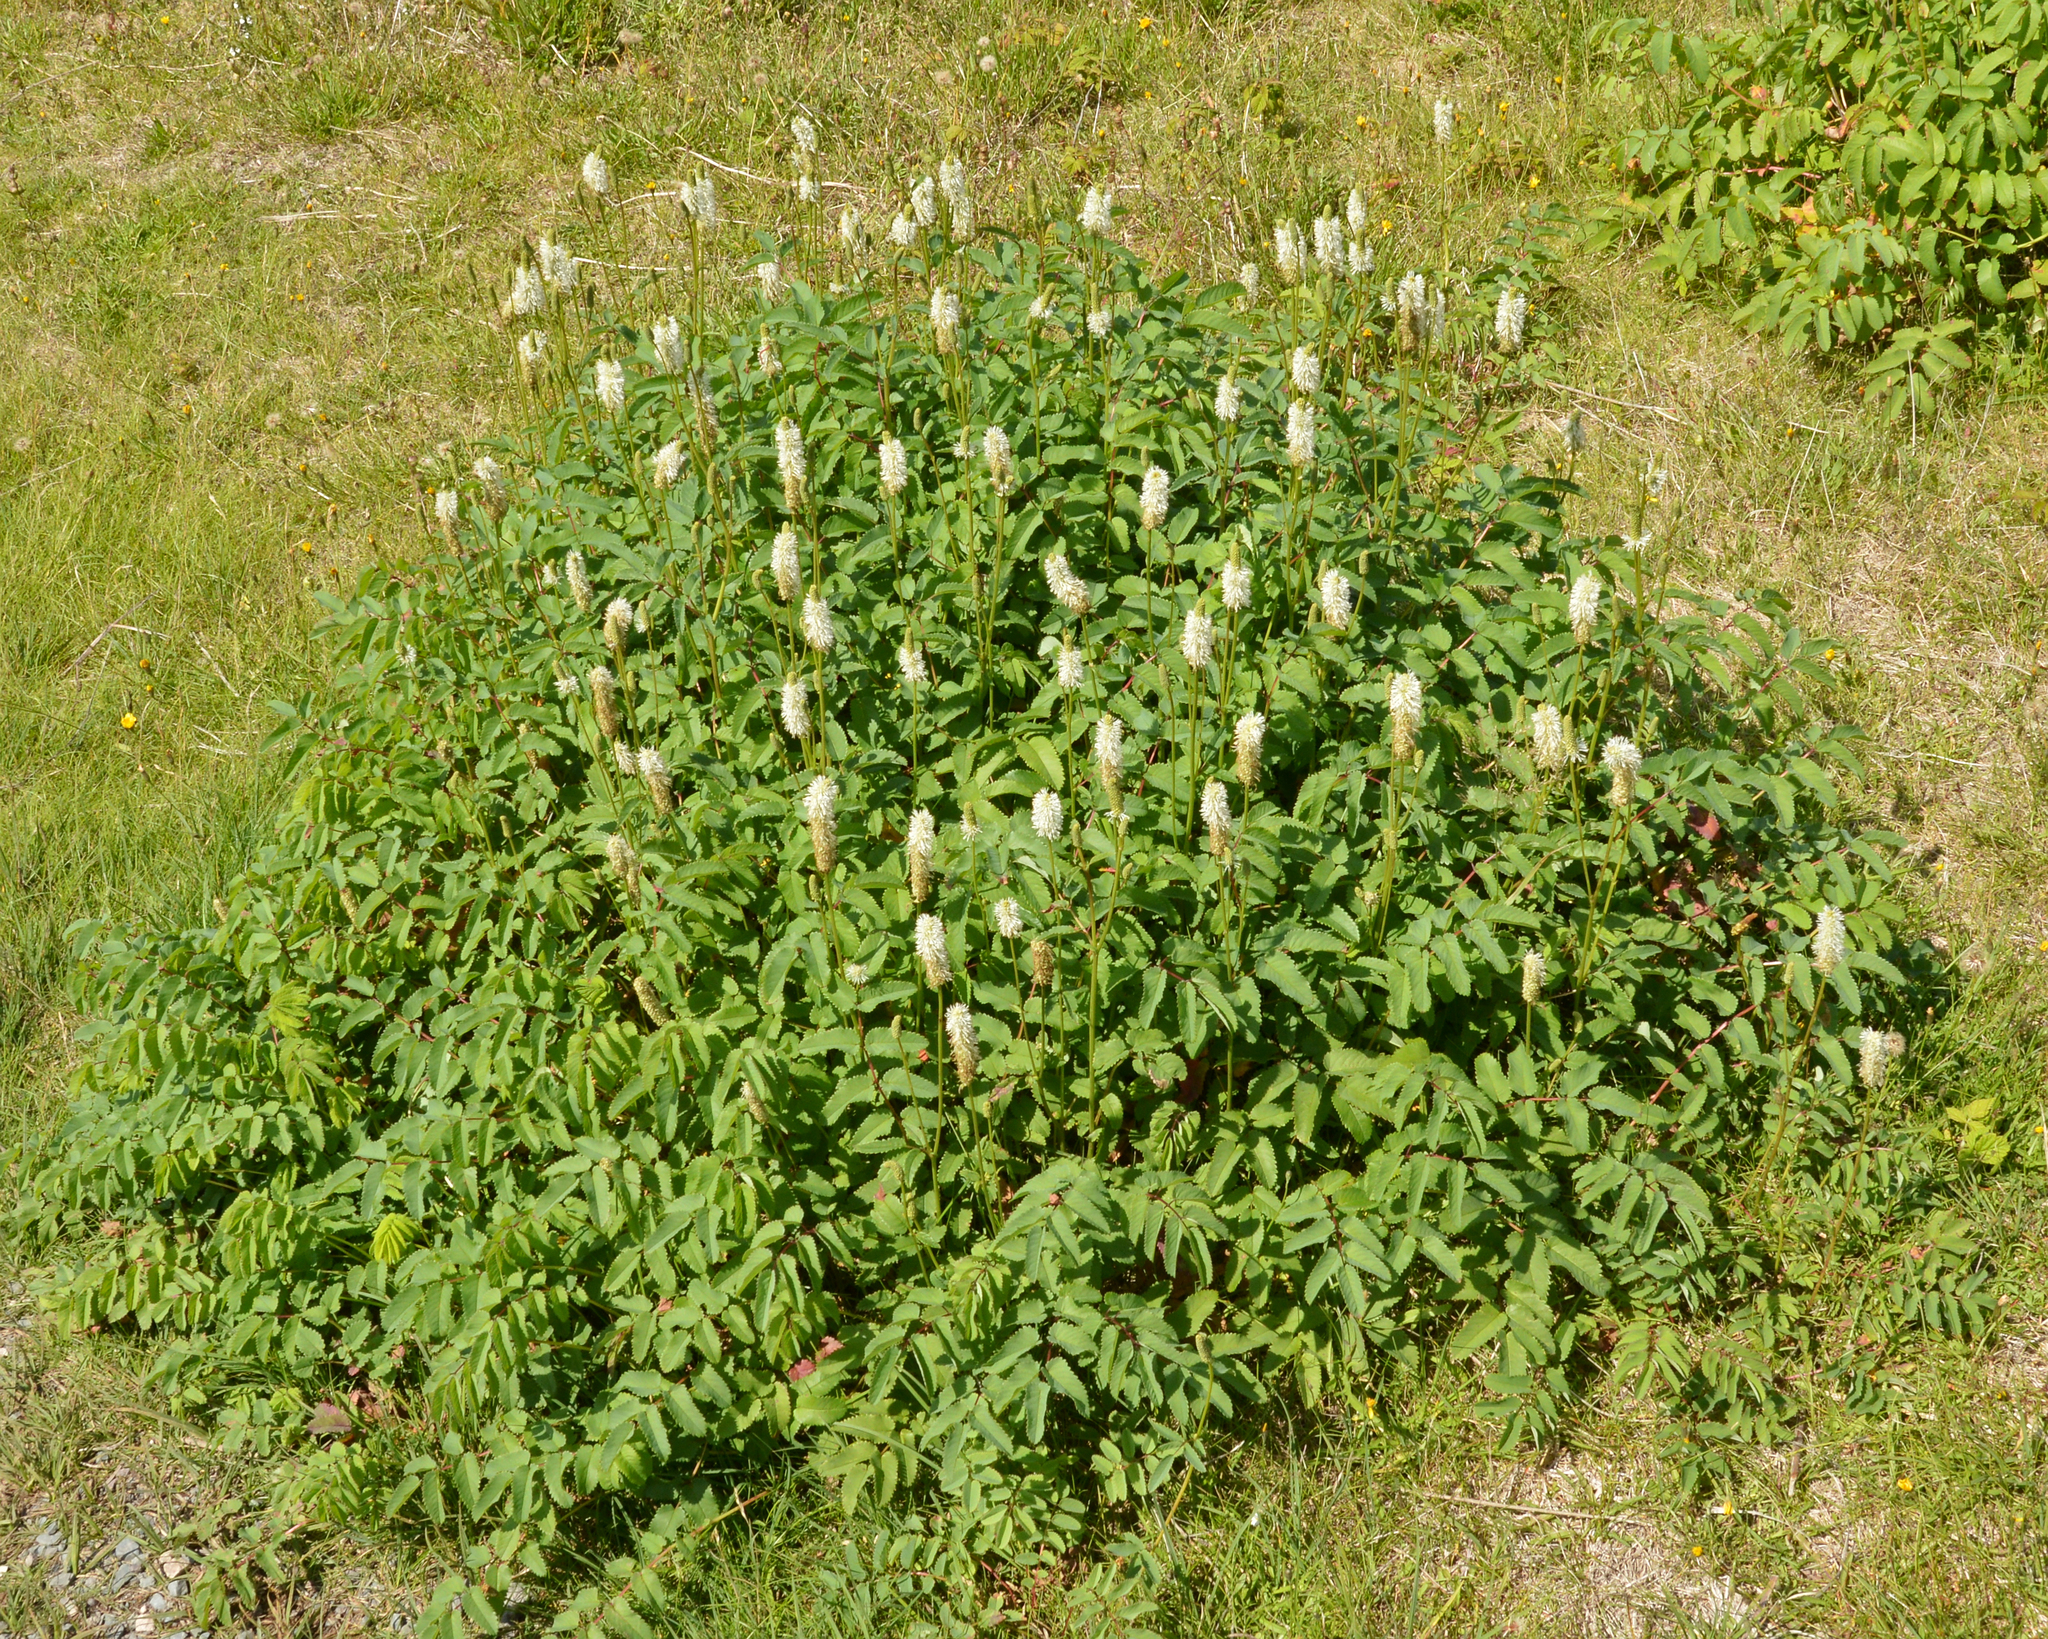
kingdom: Plantae
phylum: Tracheophyta
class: Magnoliopsida
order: Rosales
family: Rosaceae
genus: Sanguisorba
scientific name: Sanguisorba canadensis
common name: White burnet
